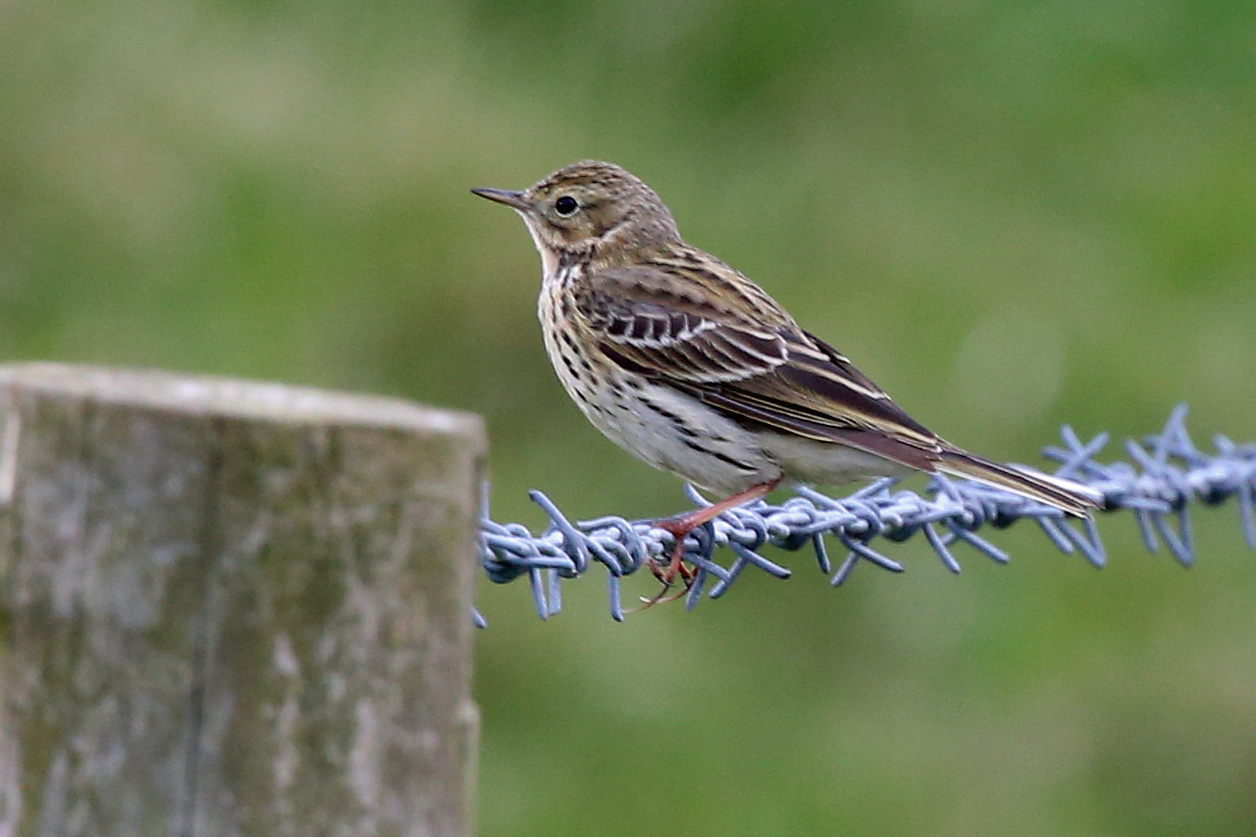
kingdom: Animalia
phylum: Chordata
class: Aves
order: Passeriformes
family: Motacillidae
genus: Anthus
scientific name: Anthus pratensis
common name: Meadow pipit
